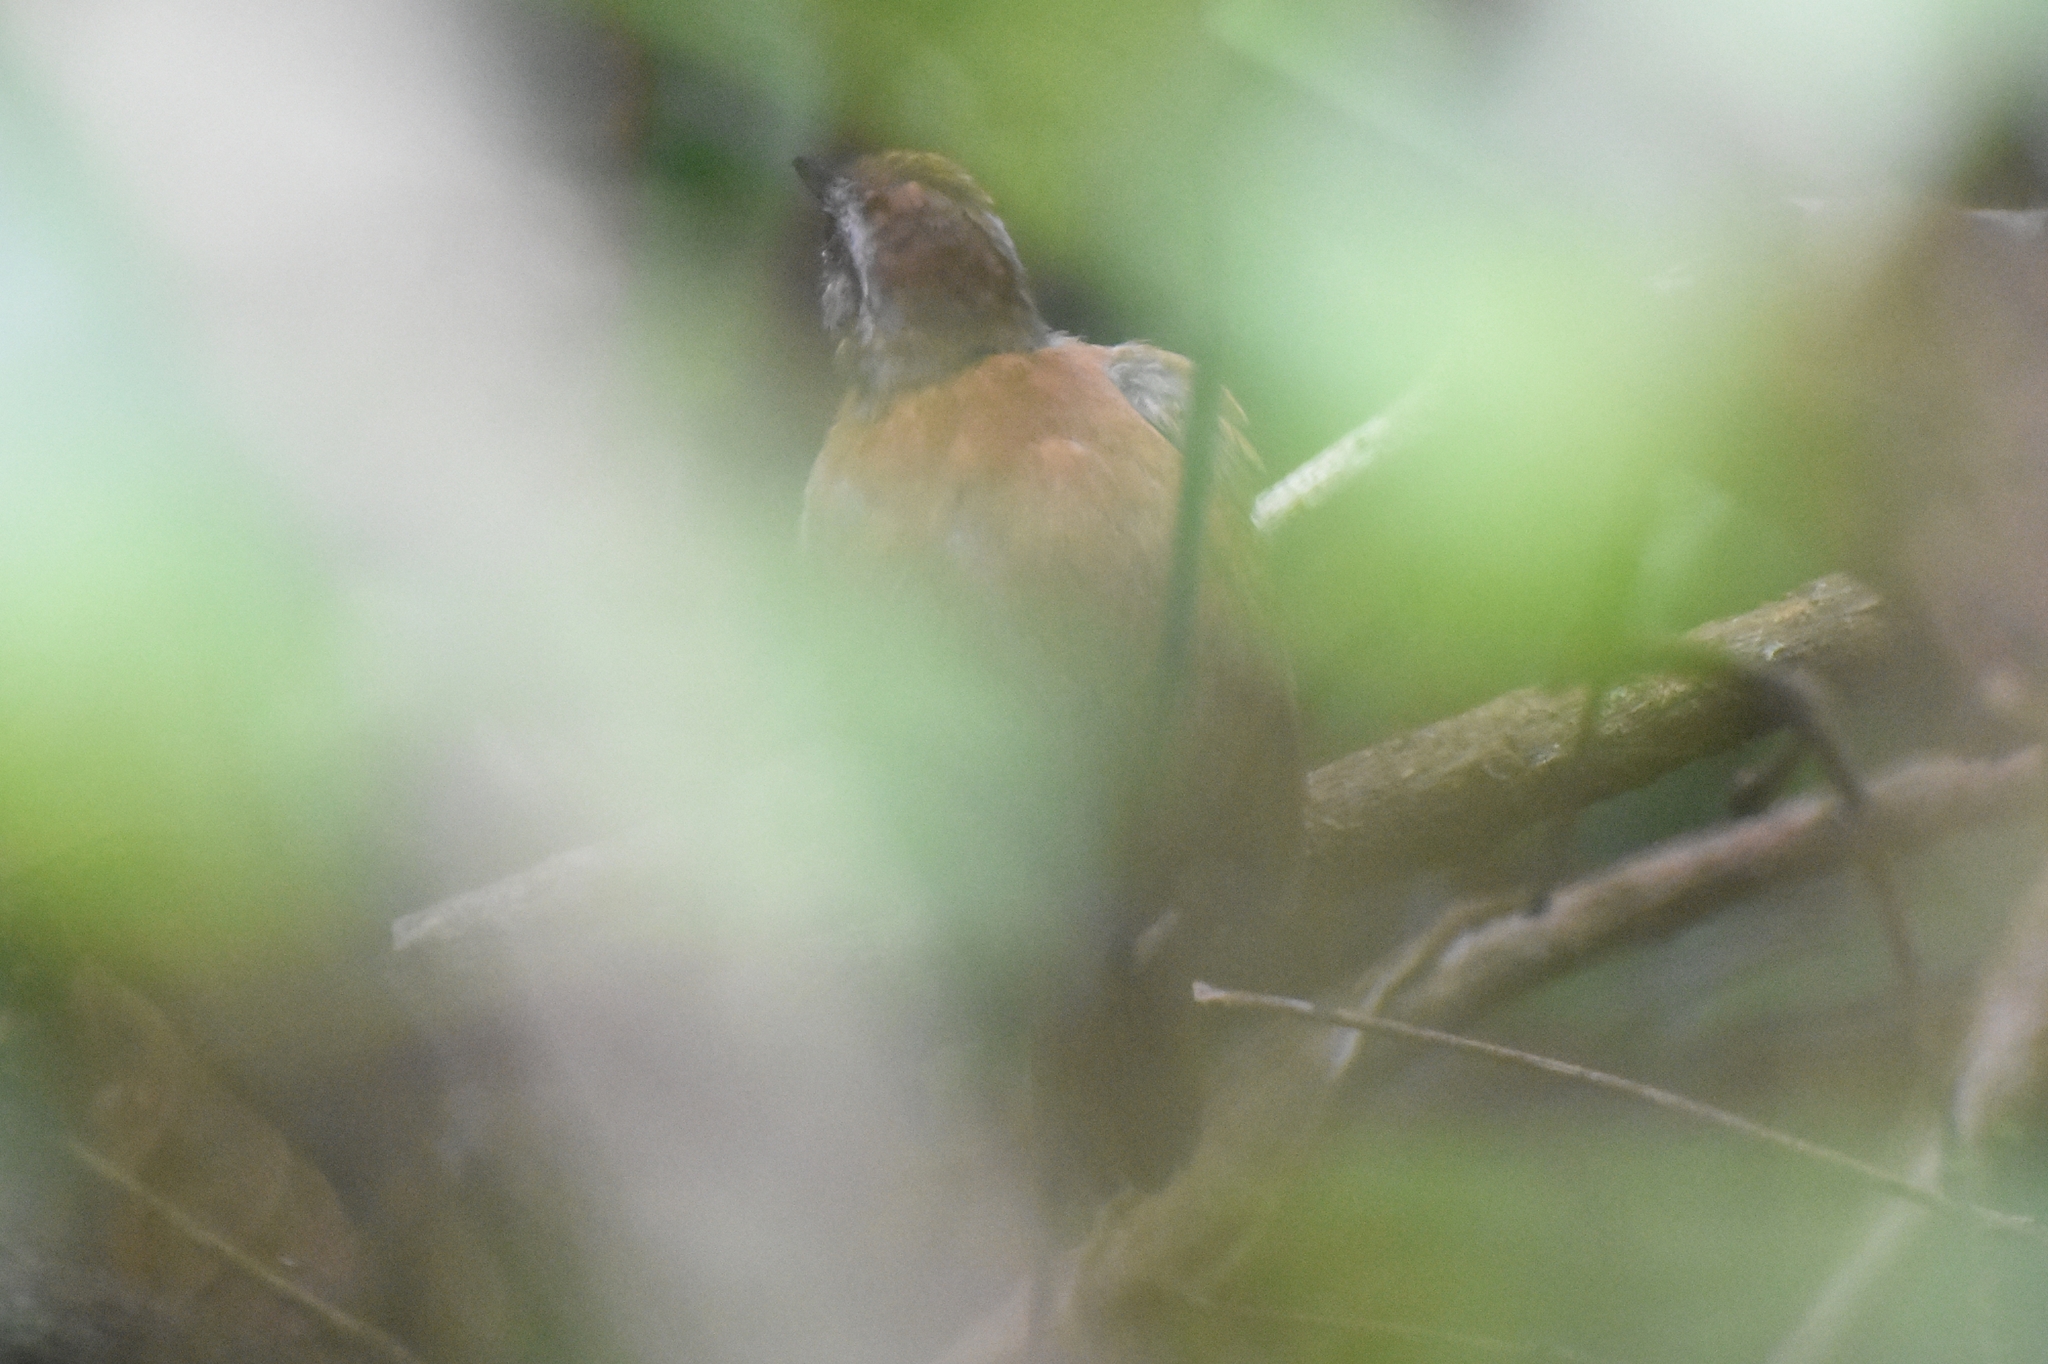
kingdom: Animalia
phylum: Chordata
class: Aves
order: Passeriformes
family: Thamnophilidae
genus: Myrmeciza
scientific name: Myrmeciza longipes
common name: White-bellied antbird
